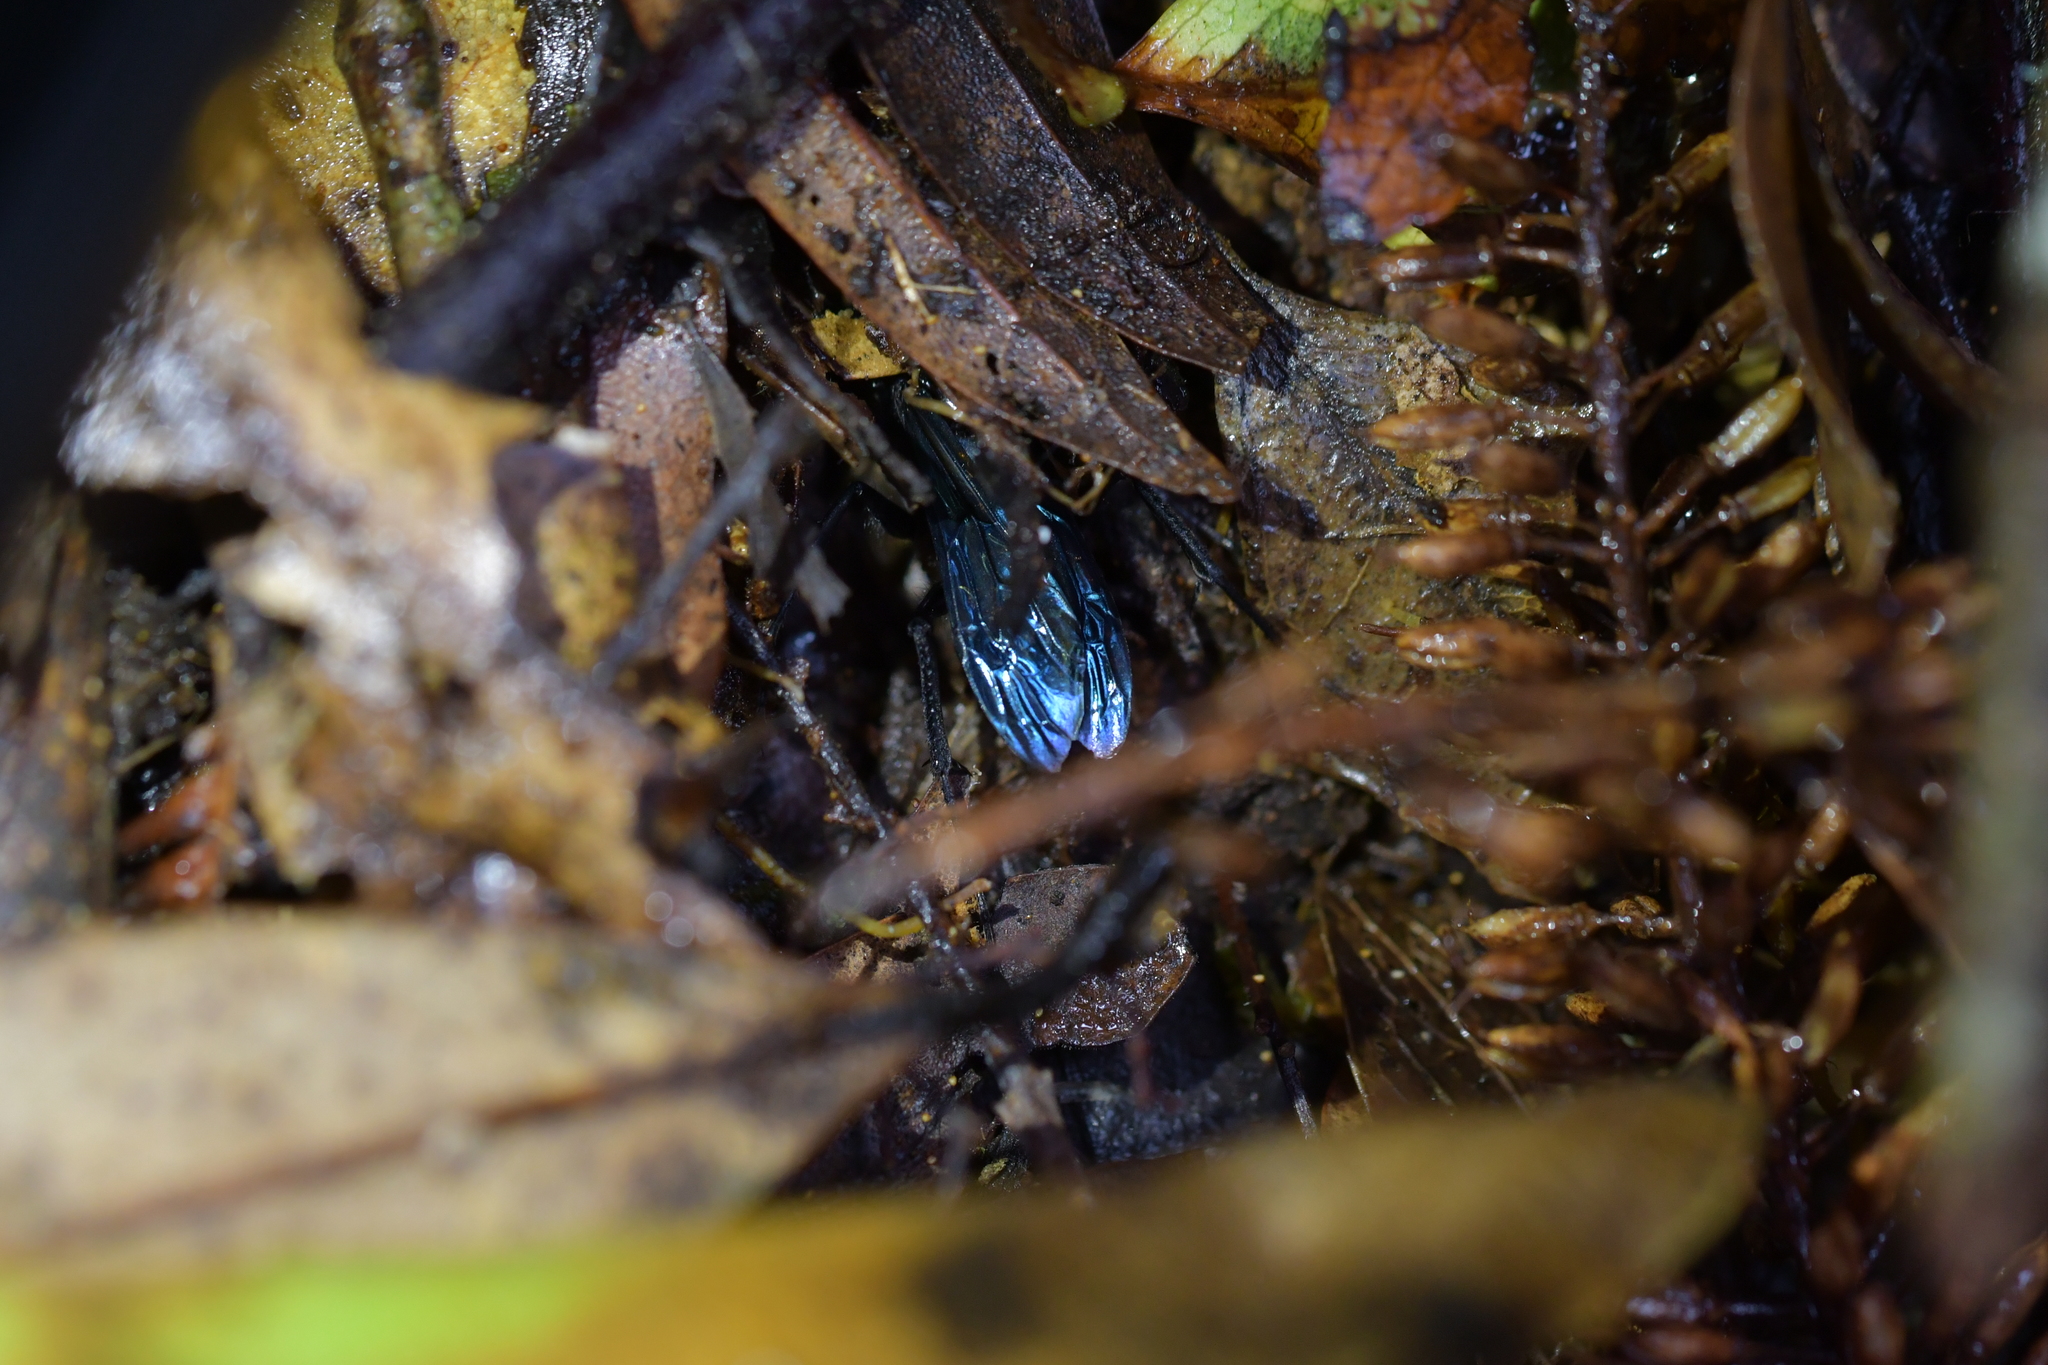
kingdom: Animalia
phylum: Arthropoda
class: Insecta
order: Hymenoptera
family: Pompilidae
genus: Priocnemis
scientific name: Priocnemis monachus
